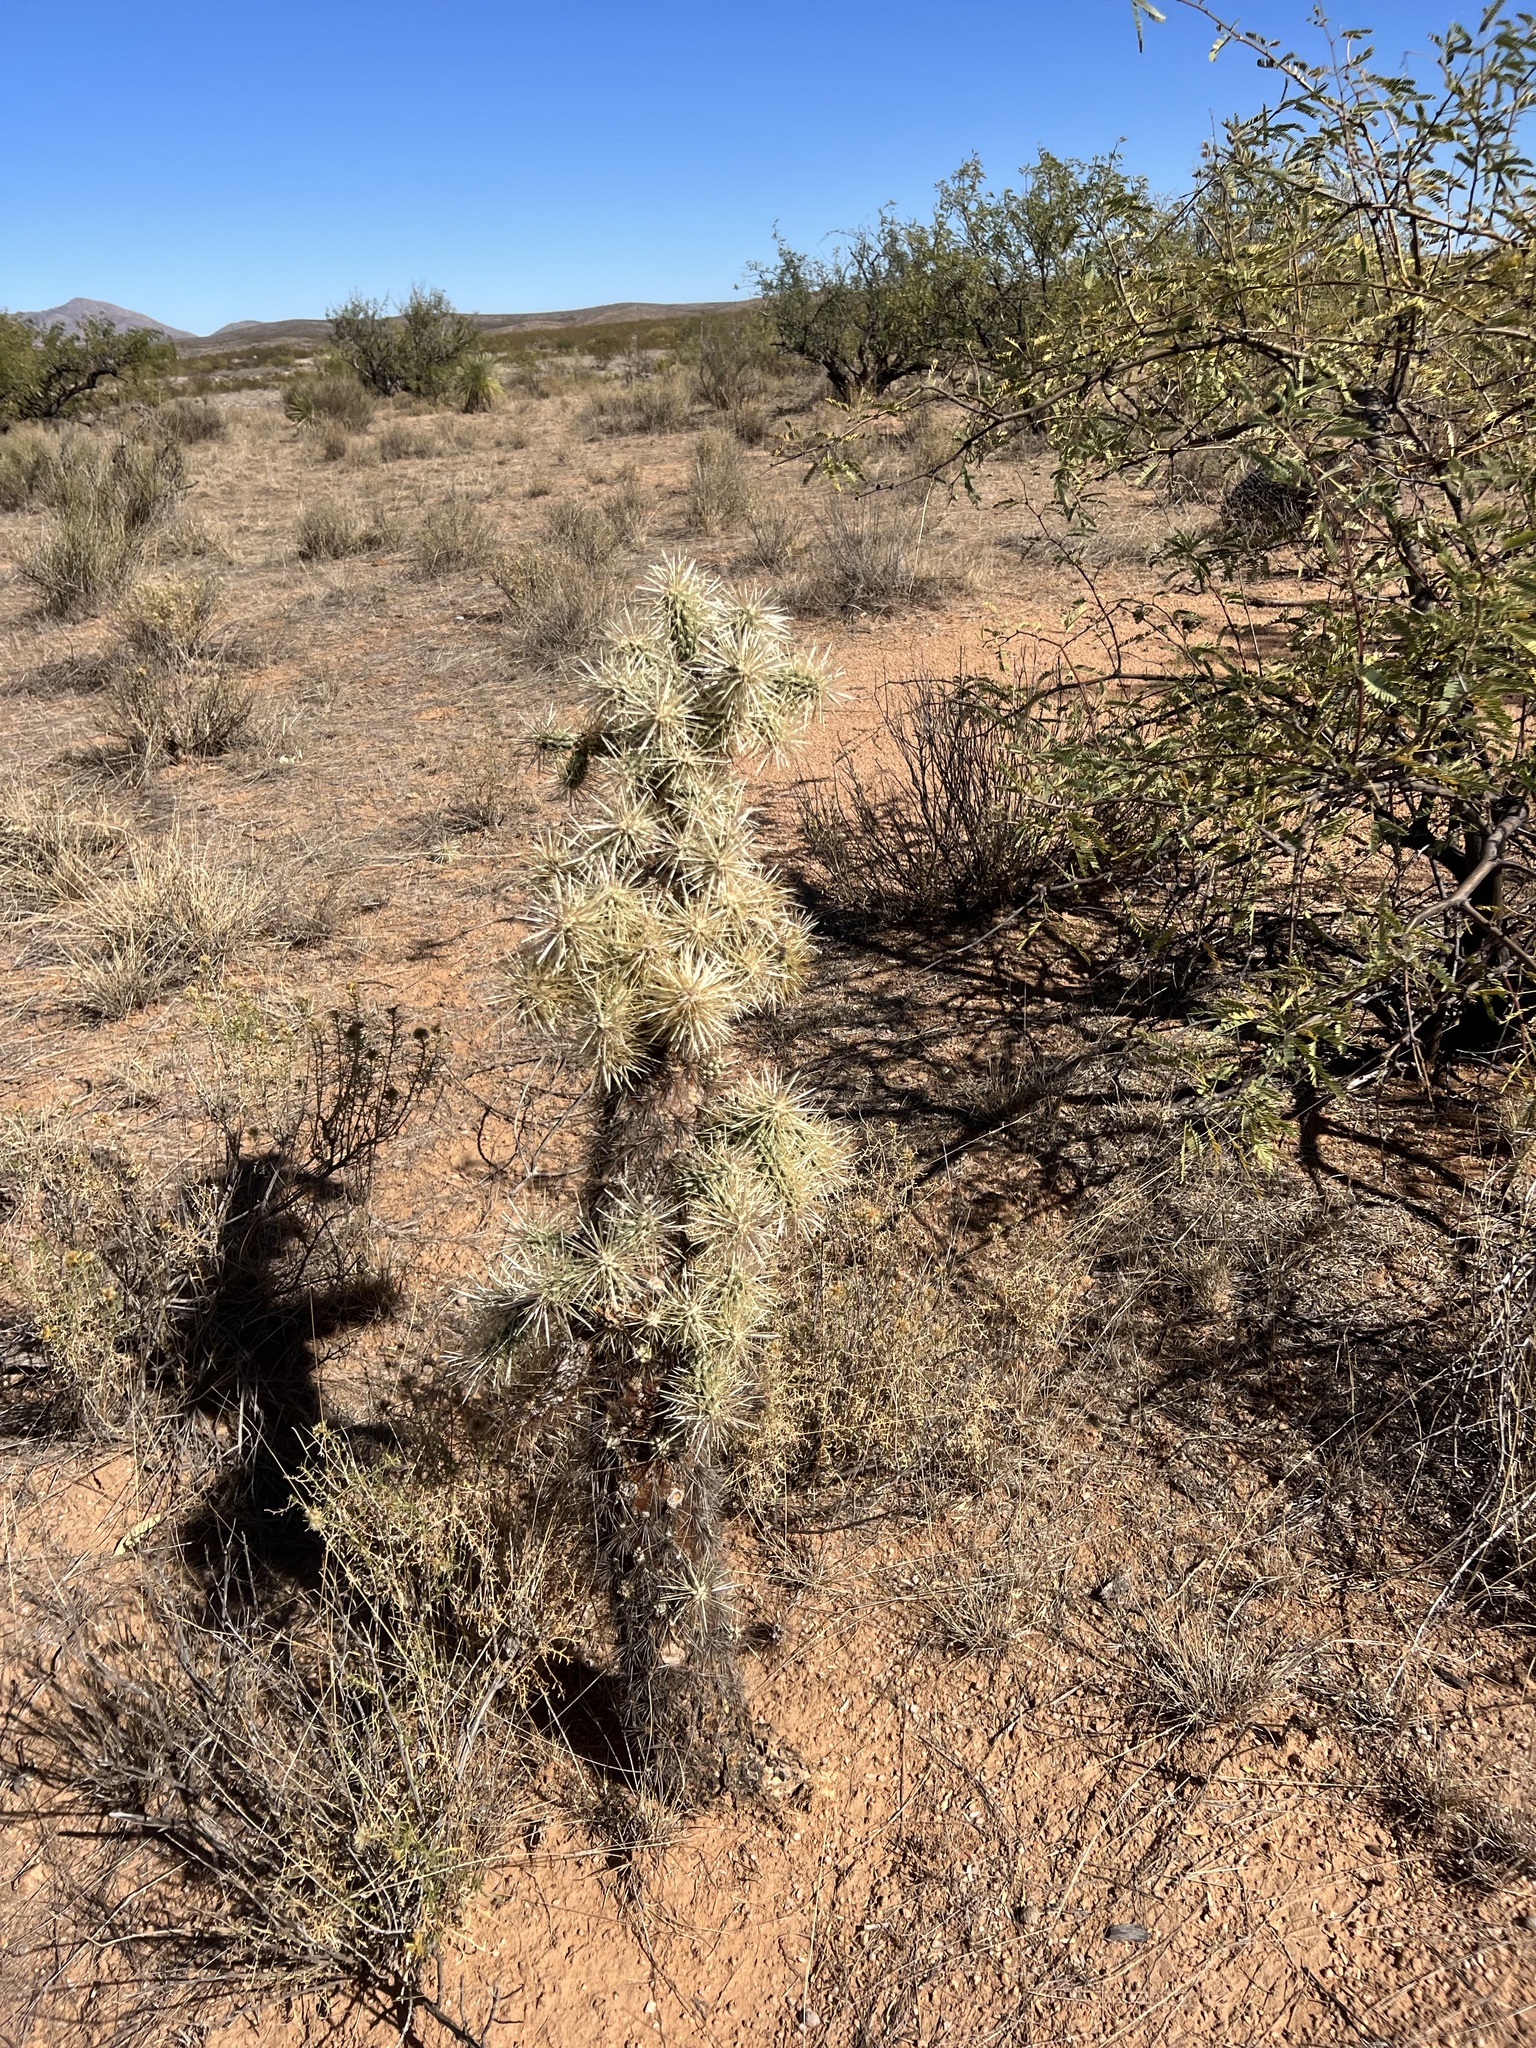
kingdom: Plantae
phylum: Tracheophyta
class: Magnoliopsida
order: Caryophyllales
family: Cactaceae
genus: Cylindropuntia
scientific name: Cylindropuntia fulgida
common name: Jumping cholla
